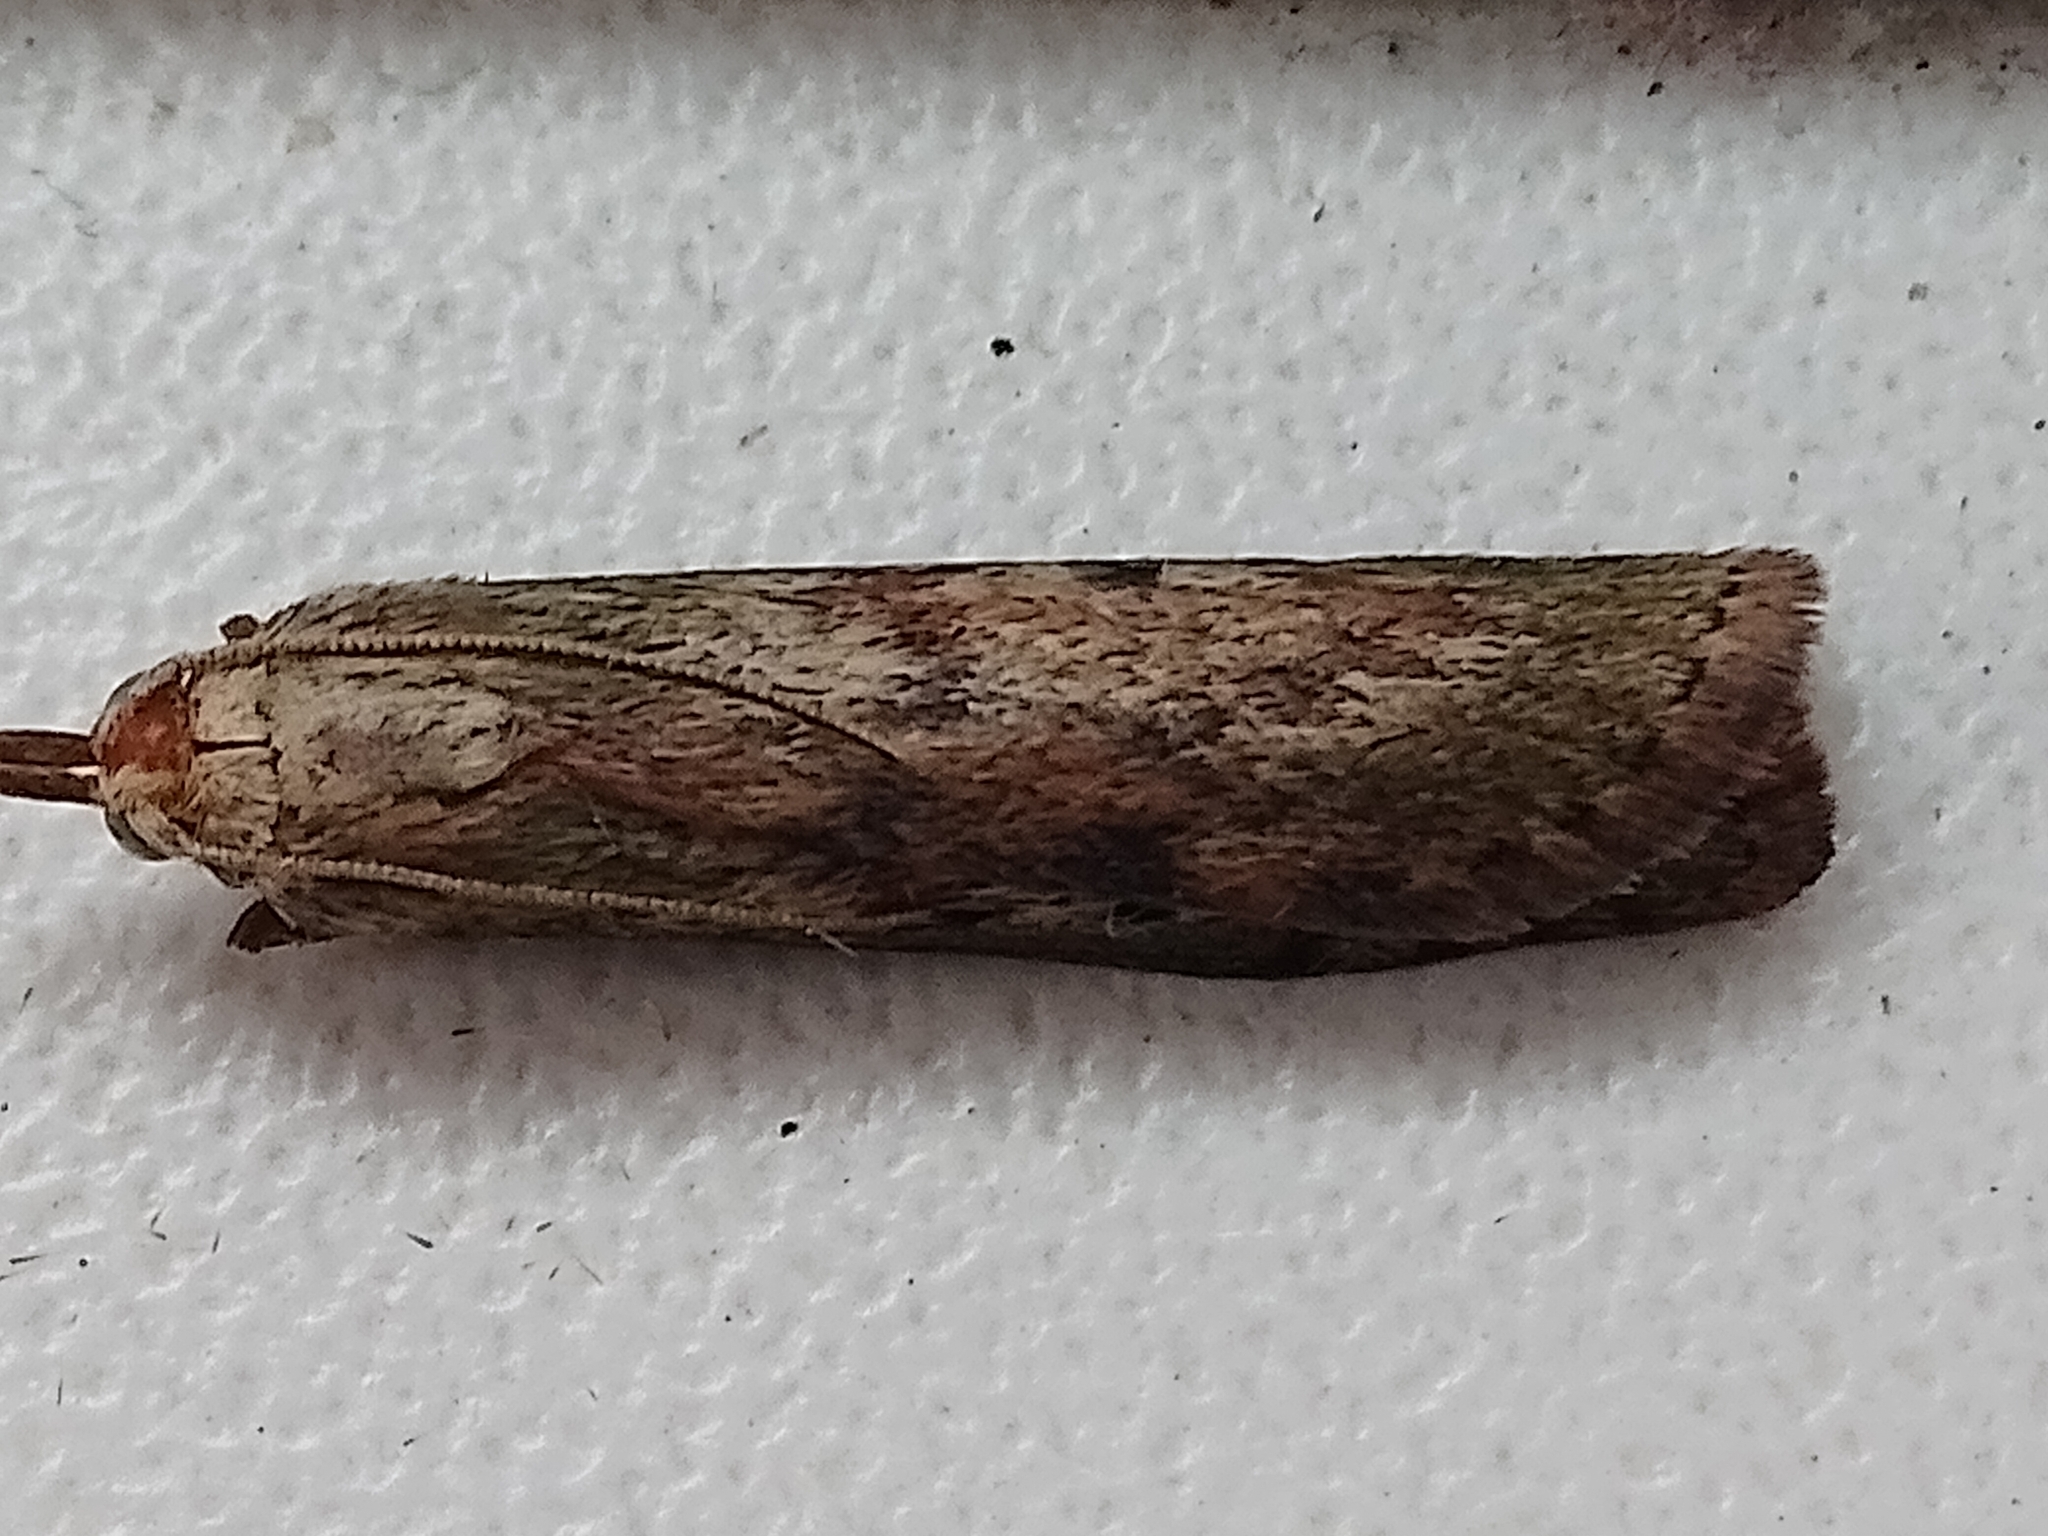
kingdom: Animalia
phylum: Arthropoda
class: Insecta
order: Lepidoptera
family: Pyralidae
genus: Aphomia
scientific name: Aphomia sociella
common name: Bee moth
